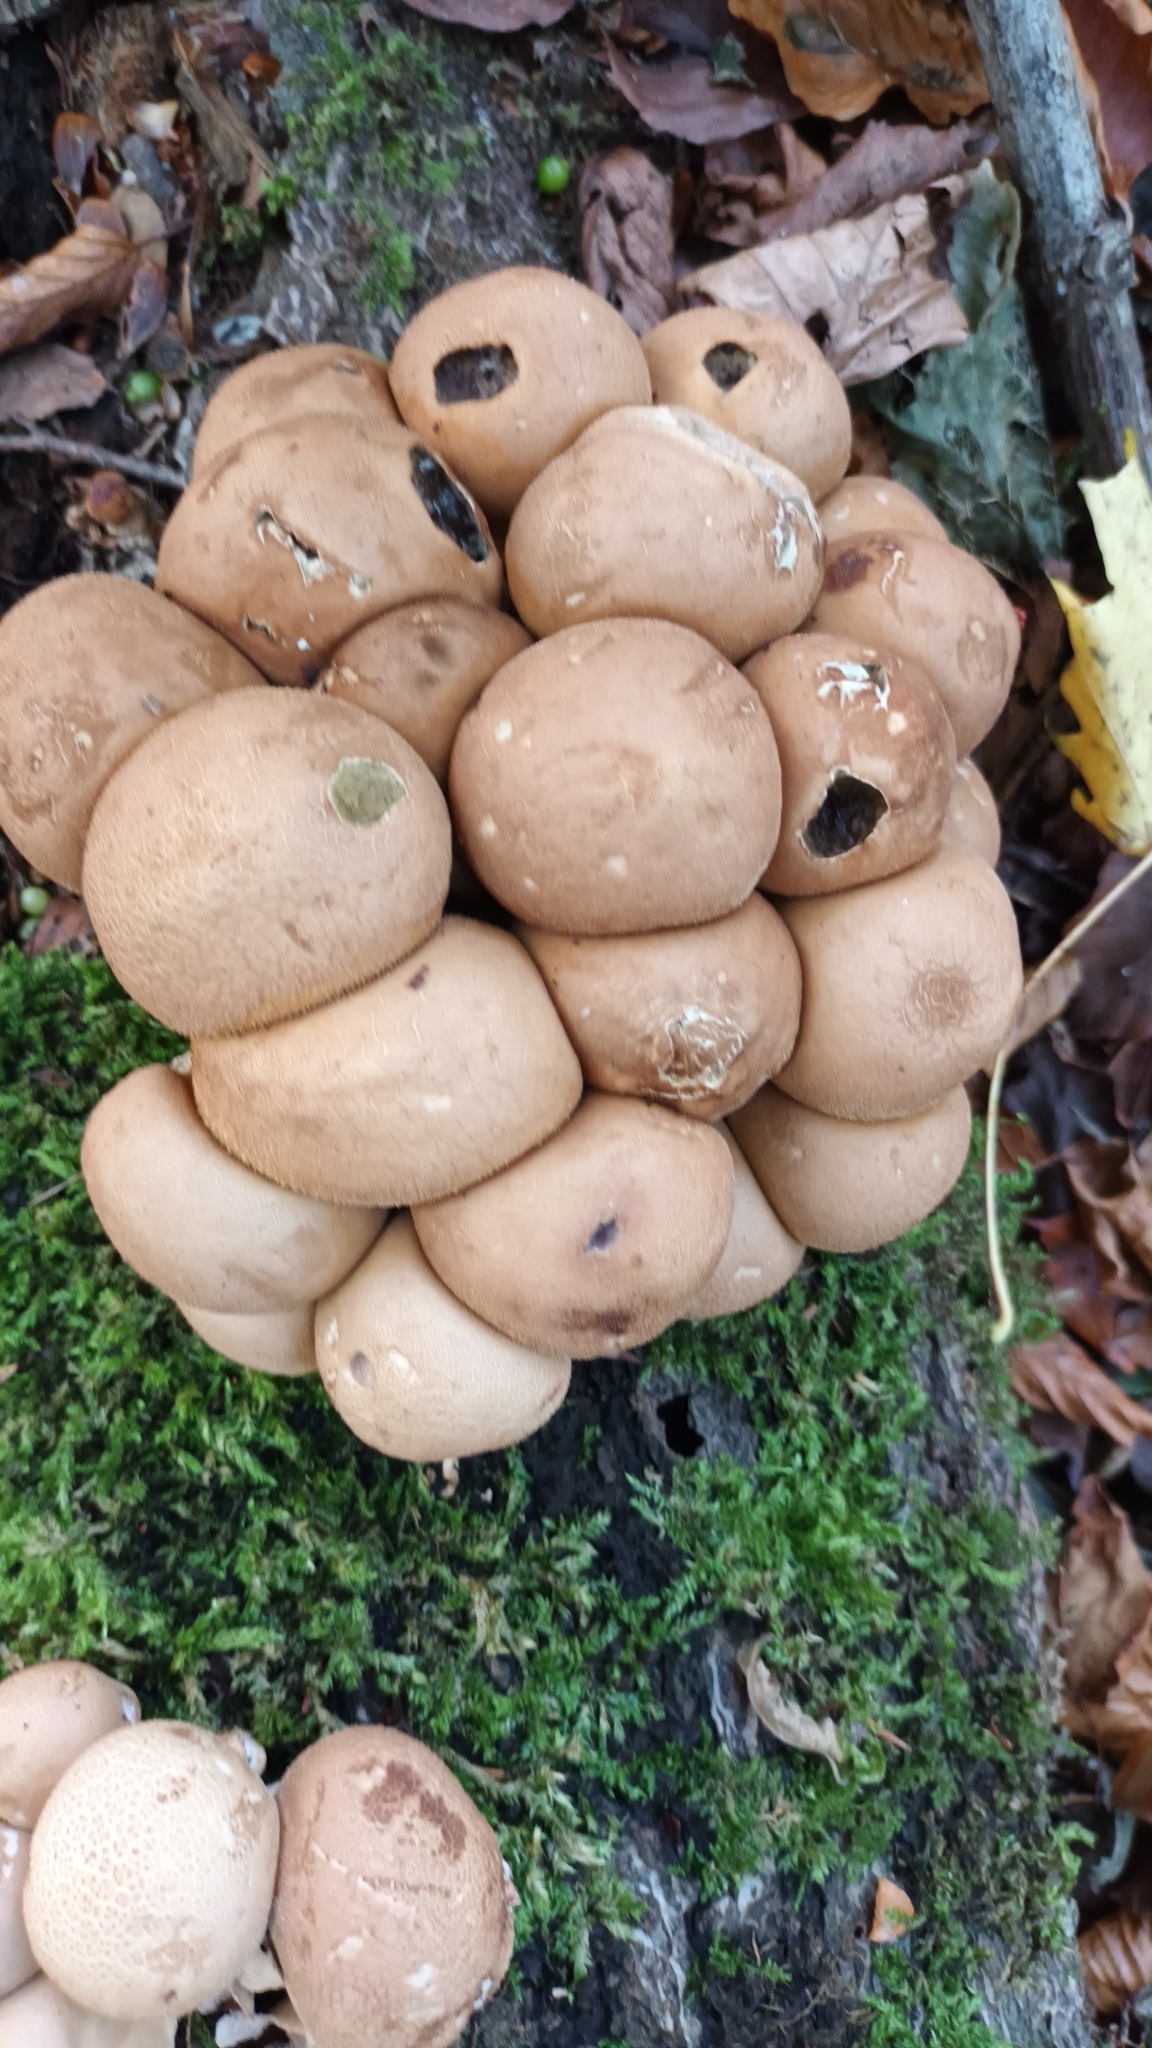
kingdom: Fungi
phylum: Basidiomycota
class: Agaricomycetes
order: Agaricales
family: Lycoperdaceae
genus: Apioperdon
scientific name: Apioperdon pyriforme
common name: Pear-shaped puffball
